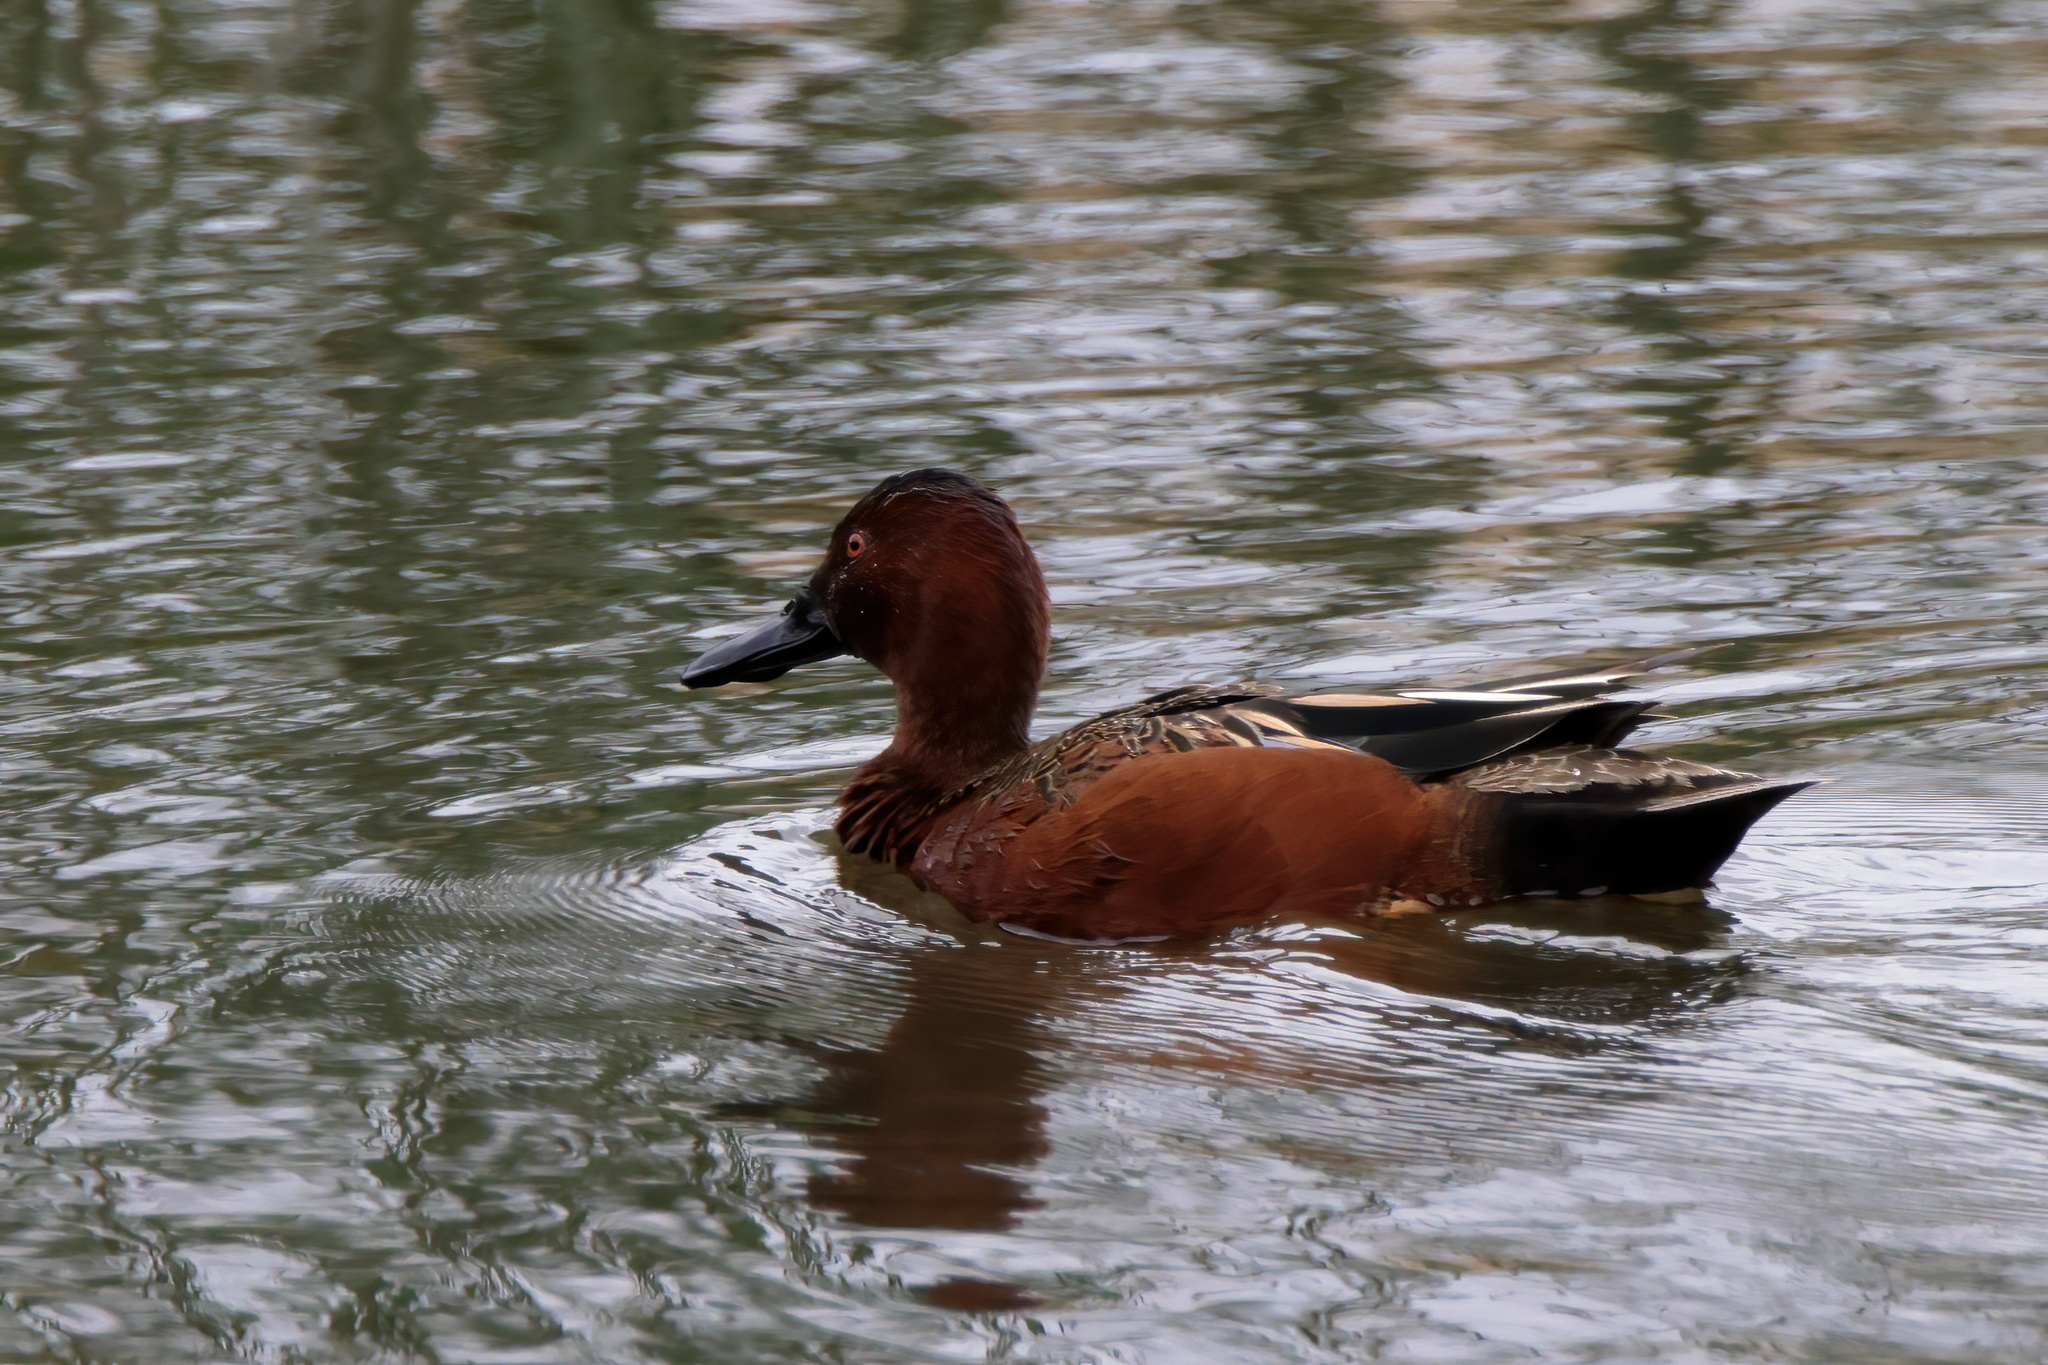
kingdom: Animalia
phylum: Chordata
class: Aves
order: Anseriformes
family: Anatidae
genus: Spatula
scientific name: Spatula cyanoptera
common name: Cinnamon teal
